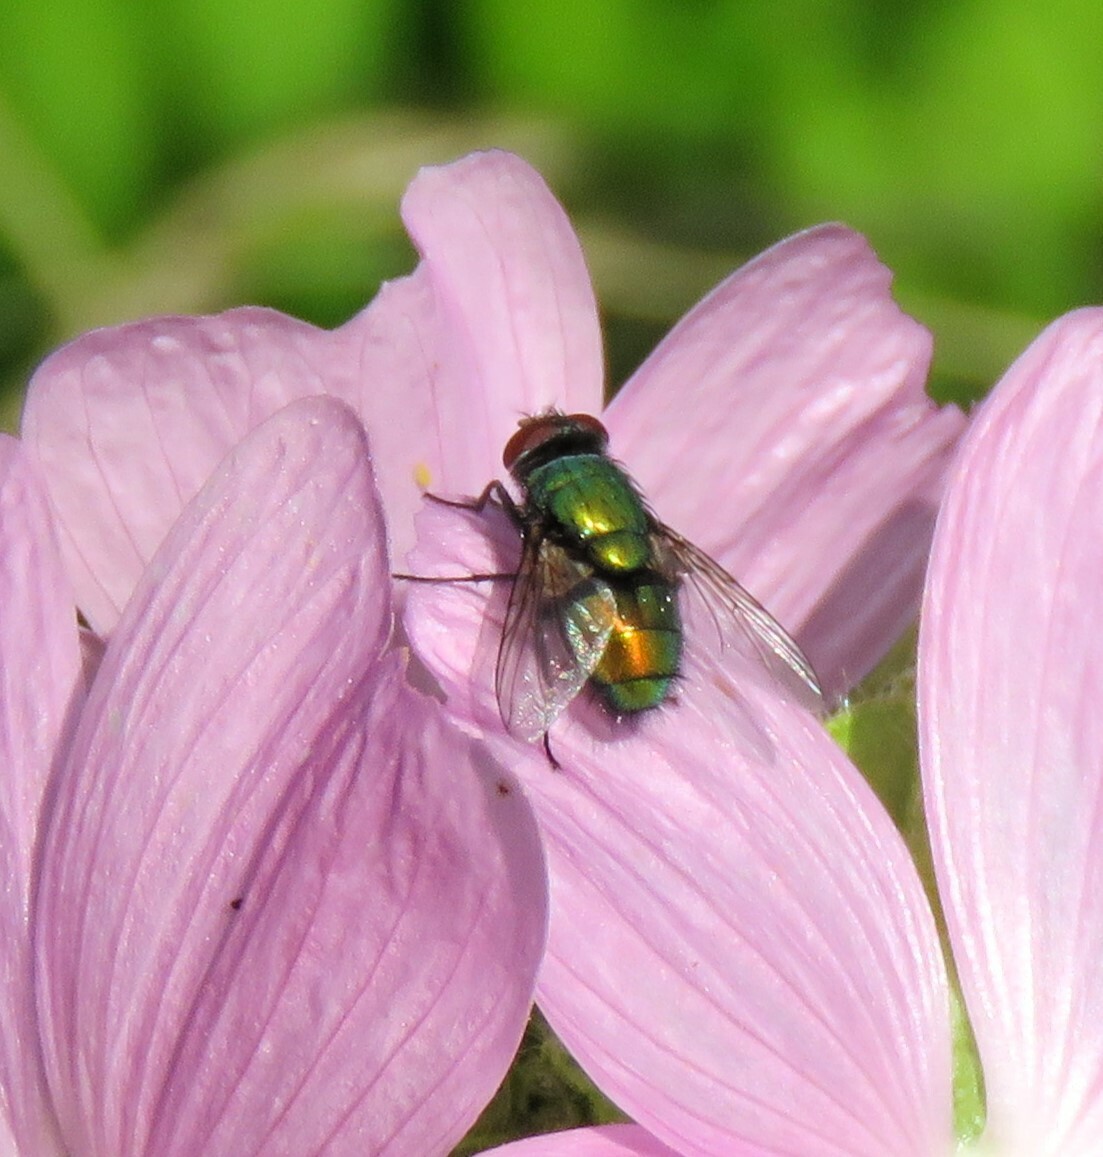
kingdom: Animalia
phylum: Arthropoda
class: Insecta
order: Diptera
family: Calliphoridae
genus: Lucilia
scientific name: Lucilia sericata
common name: Blow fly
